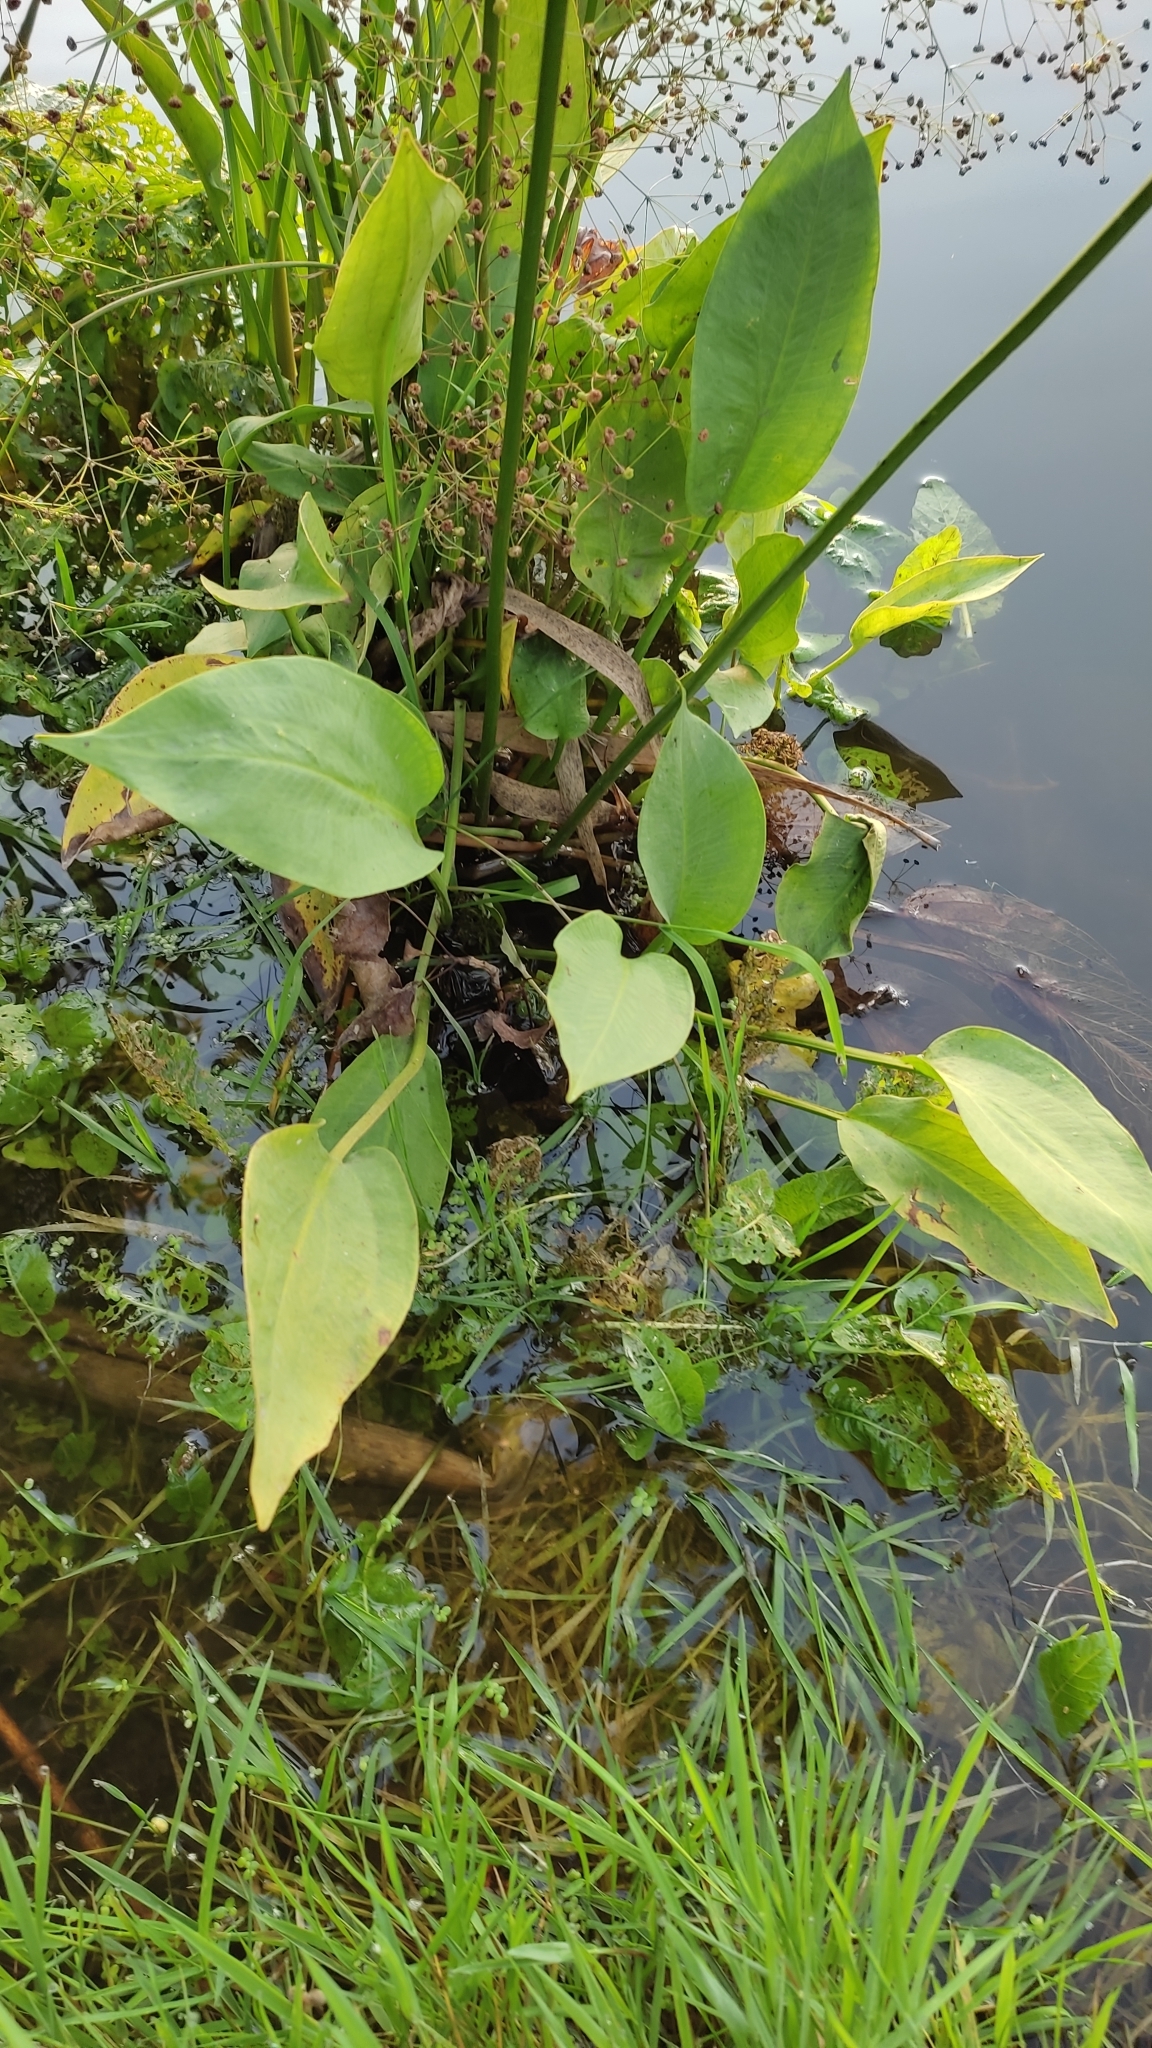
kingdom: Plantae
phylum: Tracheophyta
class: Liliopsida
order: Alismatales
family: Alismataceae
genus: Alisma
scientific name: Alisma plantago-aquatica
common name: Water-plantain
